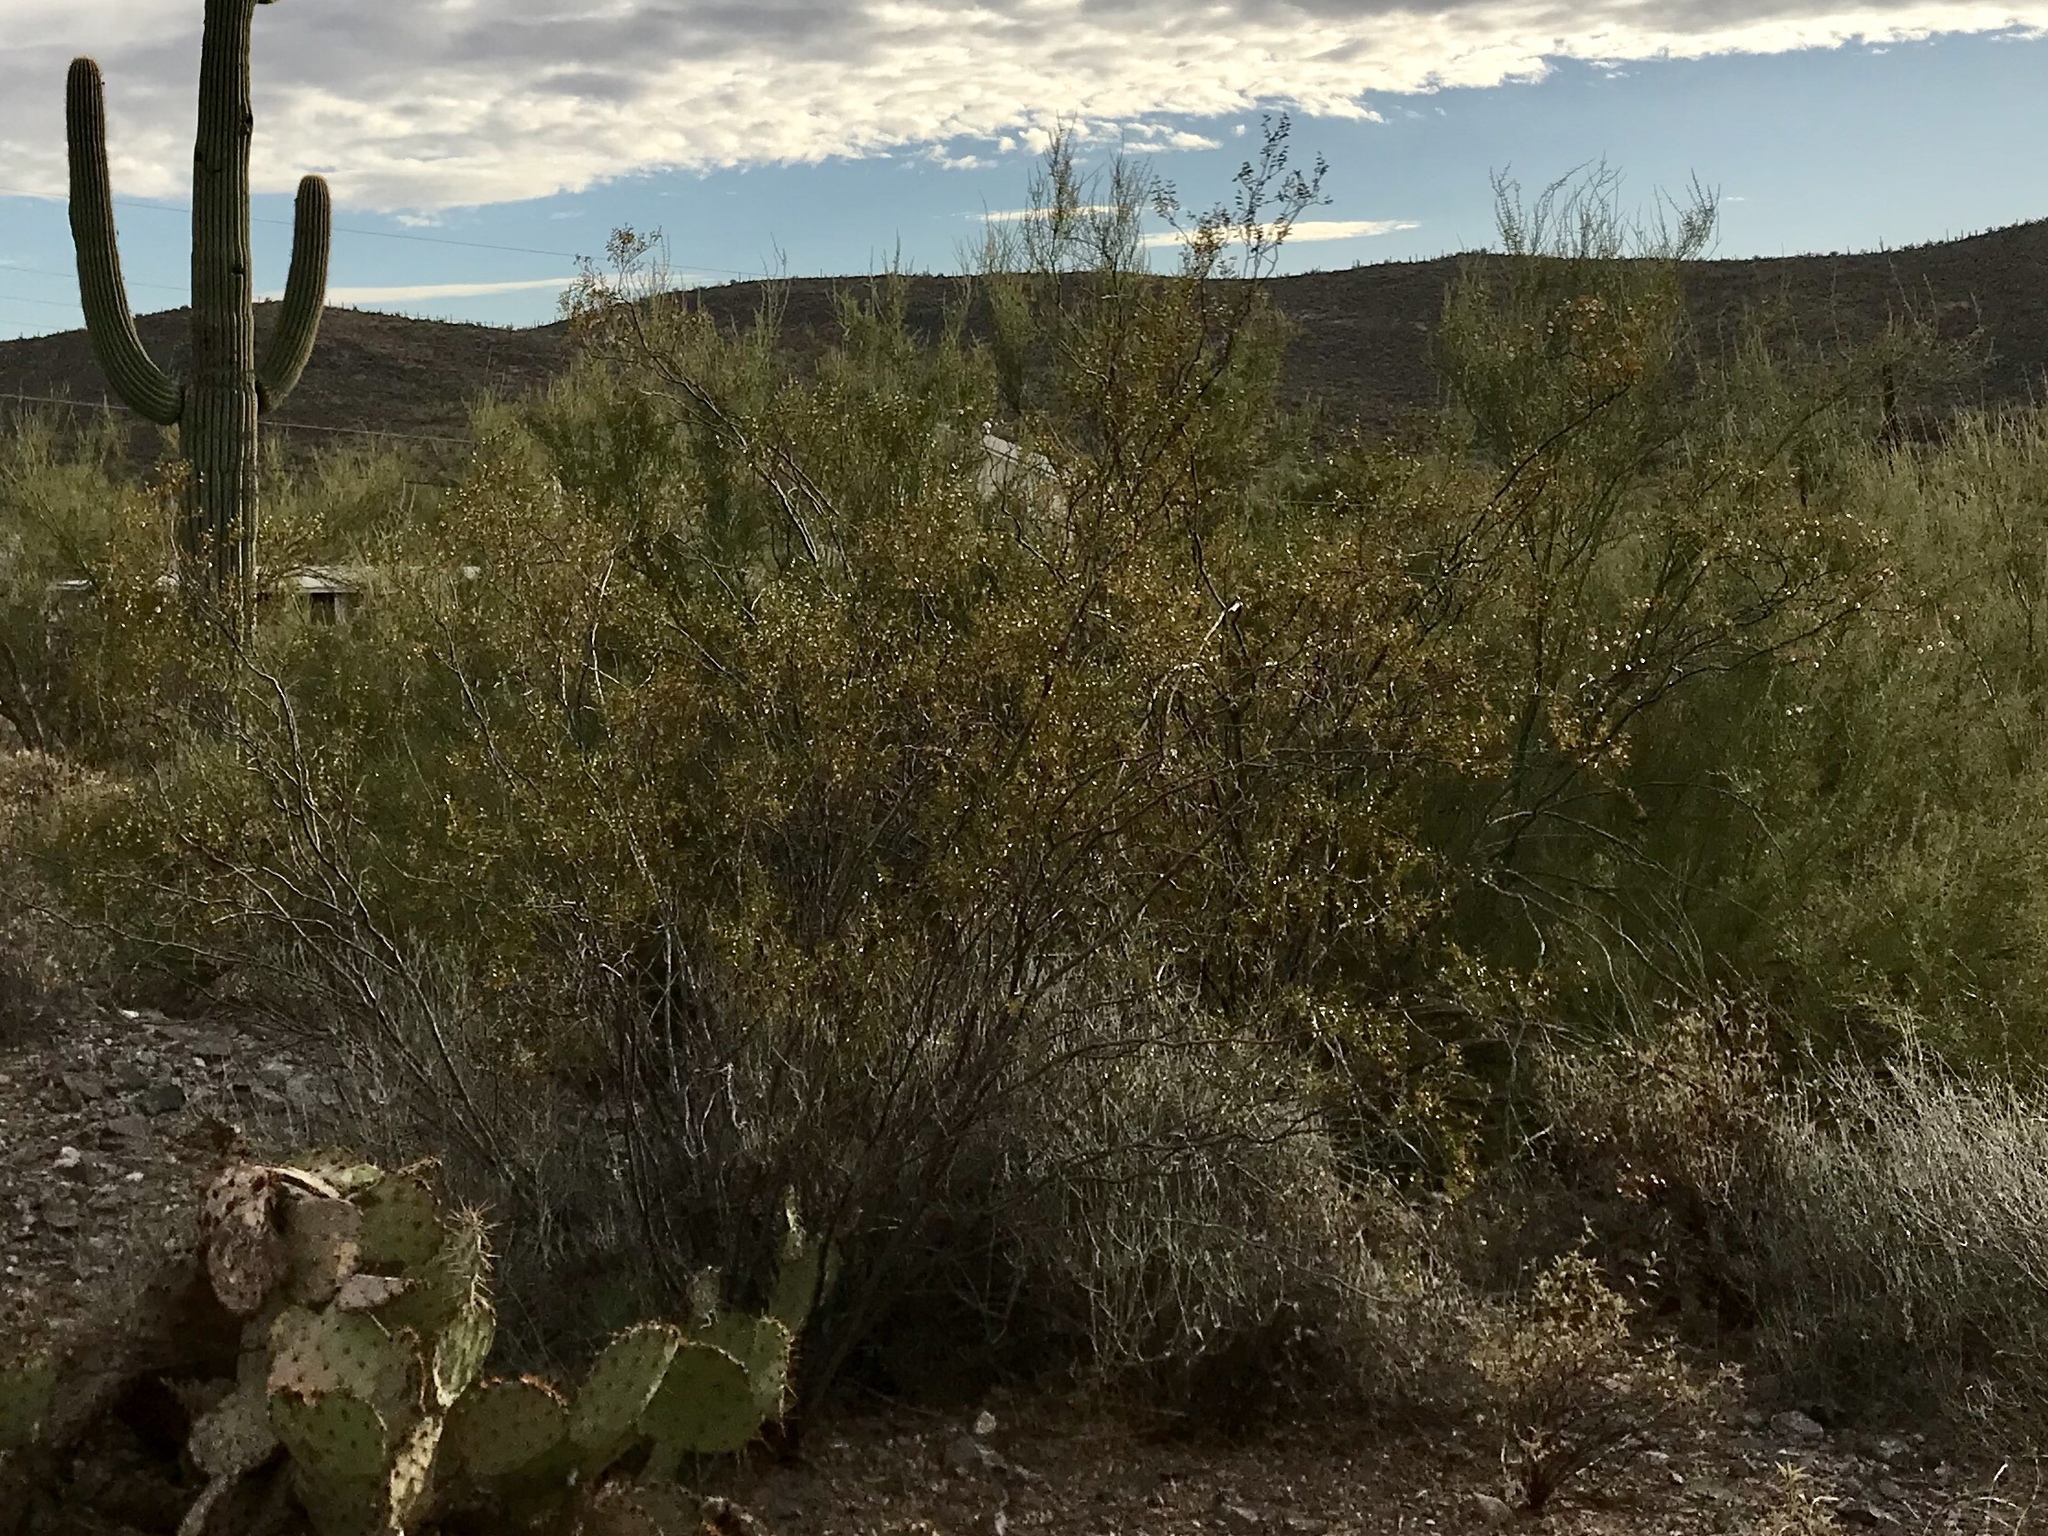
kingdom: Plantae
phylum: Tracheophyta
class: Magnoliopsida
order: Zygophyllales
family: Zygophyllaceae
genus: Larrea
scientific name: Larrea tridentata
